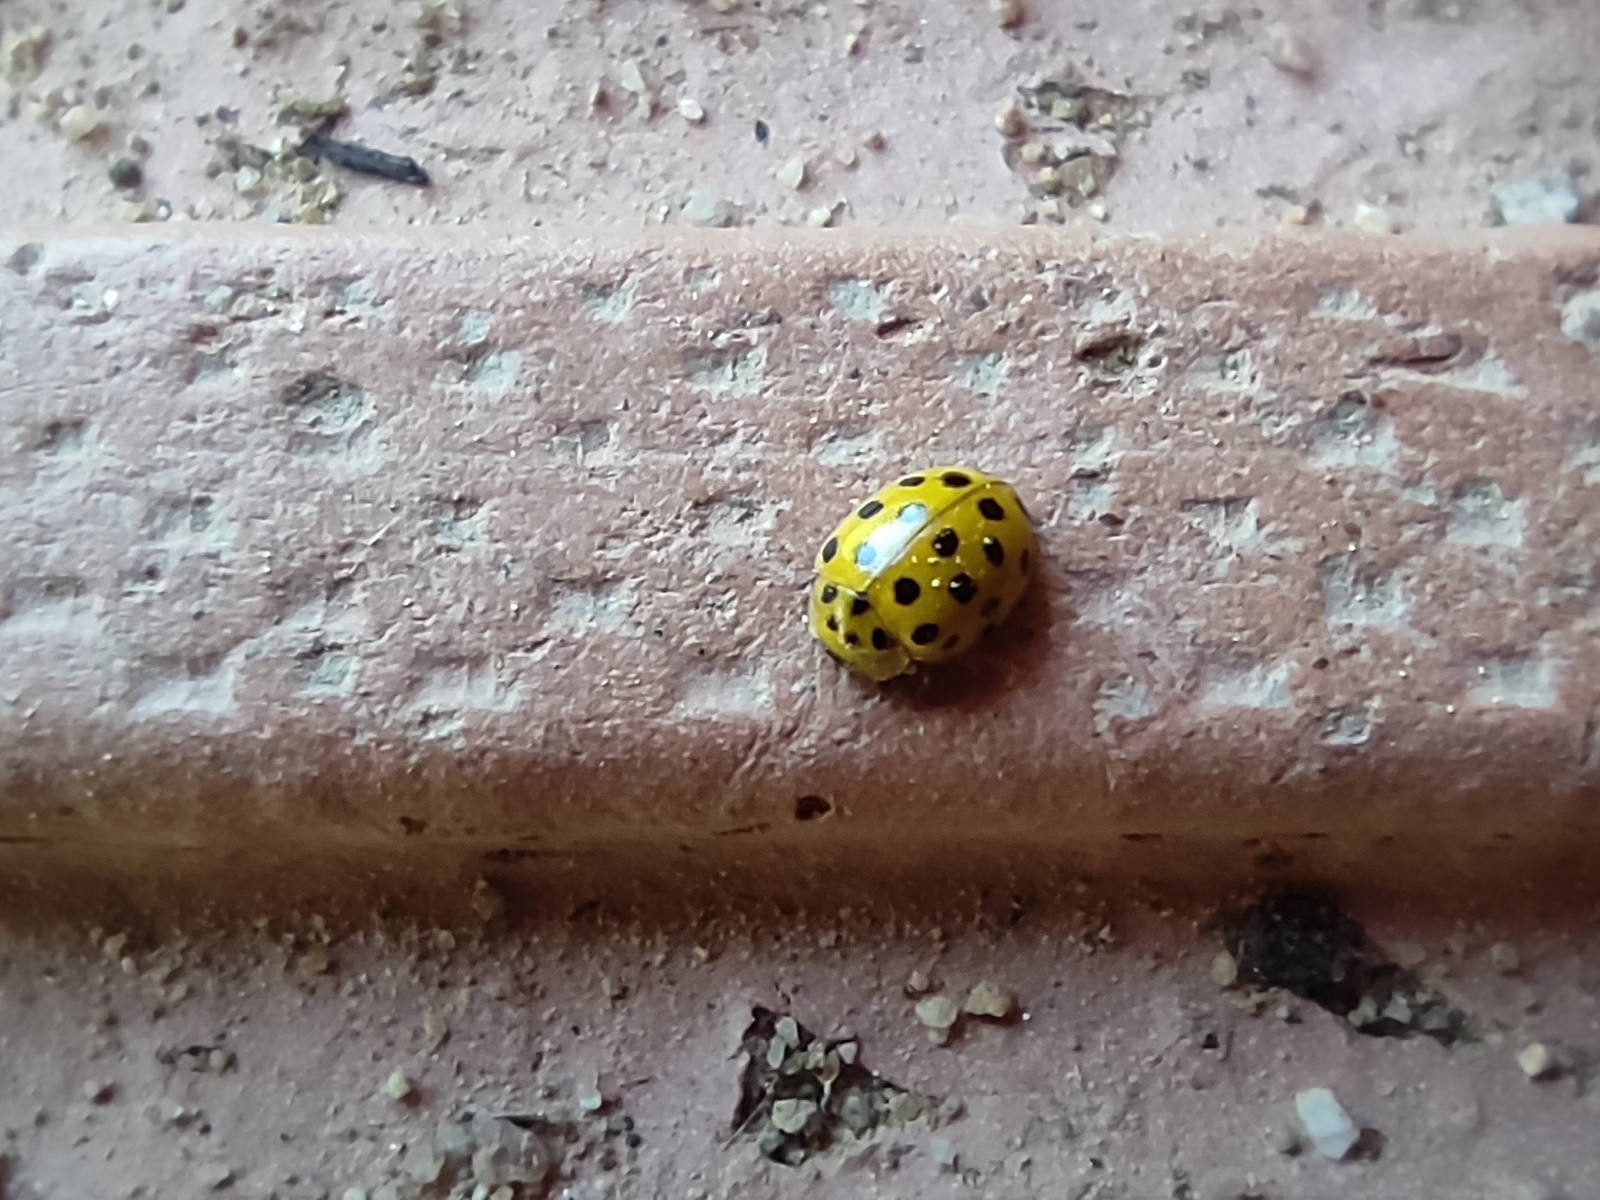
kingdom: Animalia
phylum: Arthropoda
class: Insecta
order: Coleoptera
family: Coccinellidae
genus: Psyllobora
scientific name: Psyllobora vigintiduopunctata
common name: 22-spot ladybird
